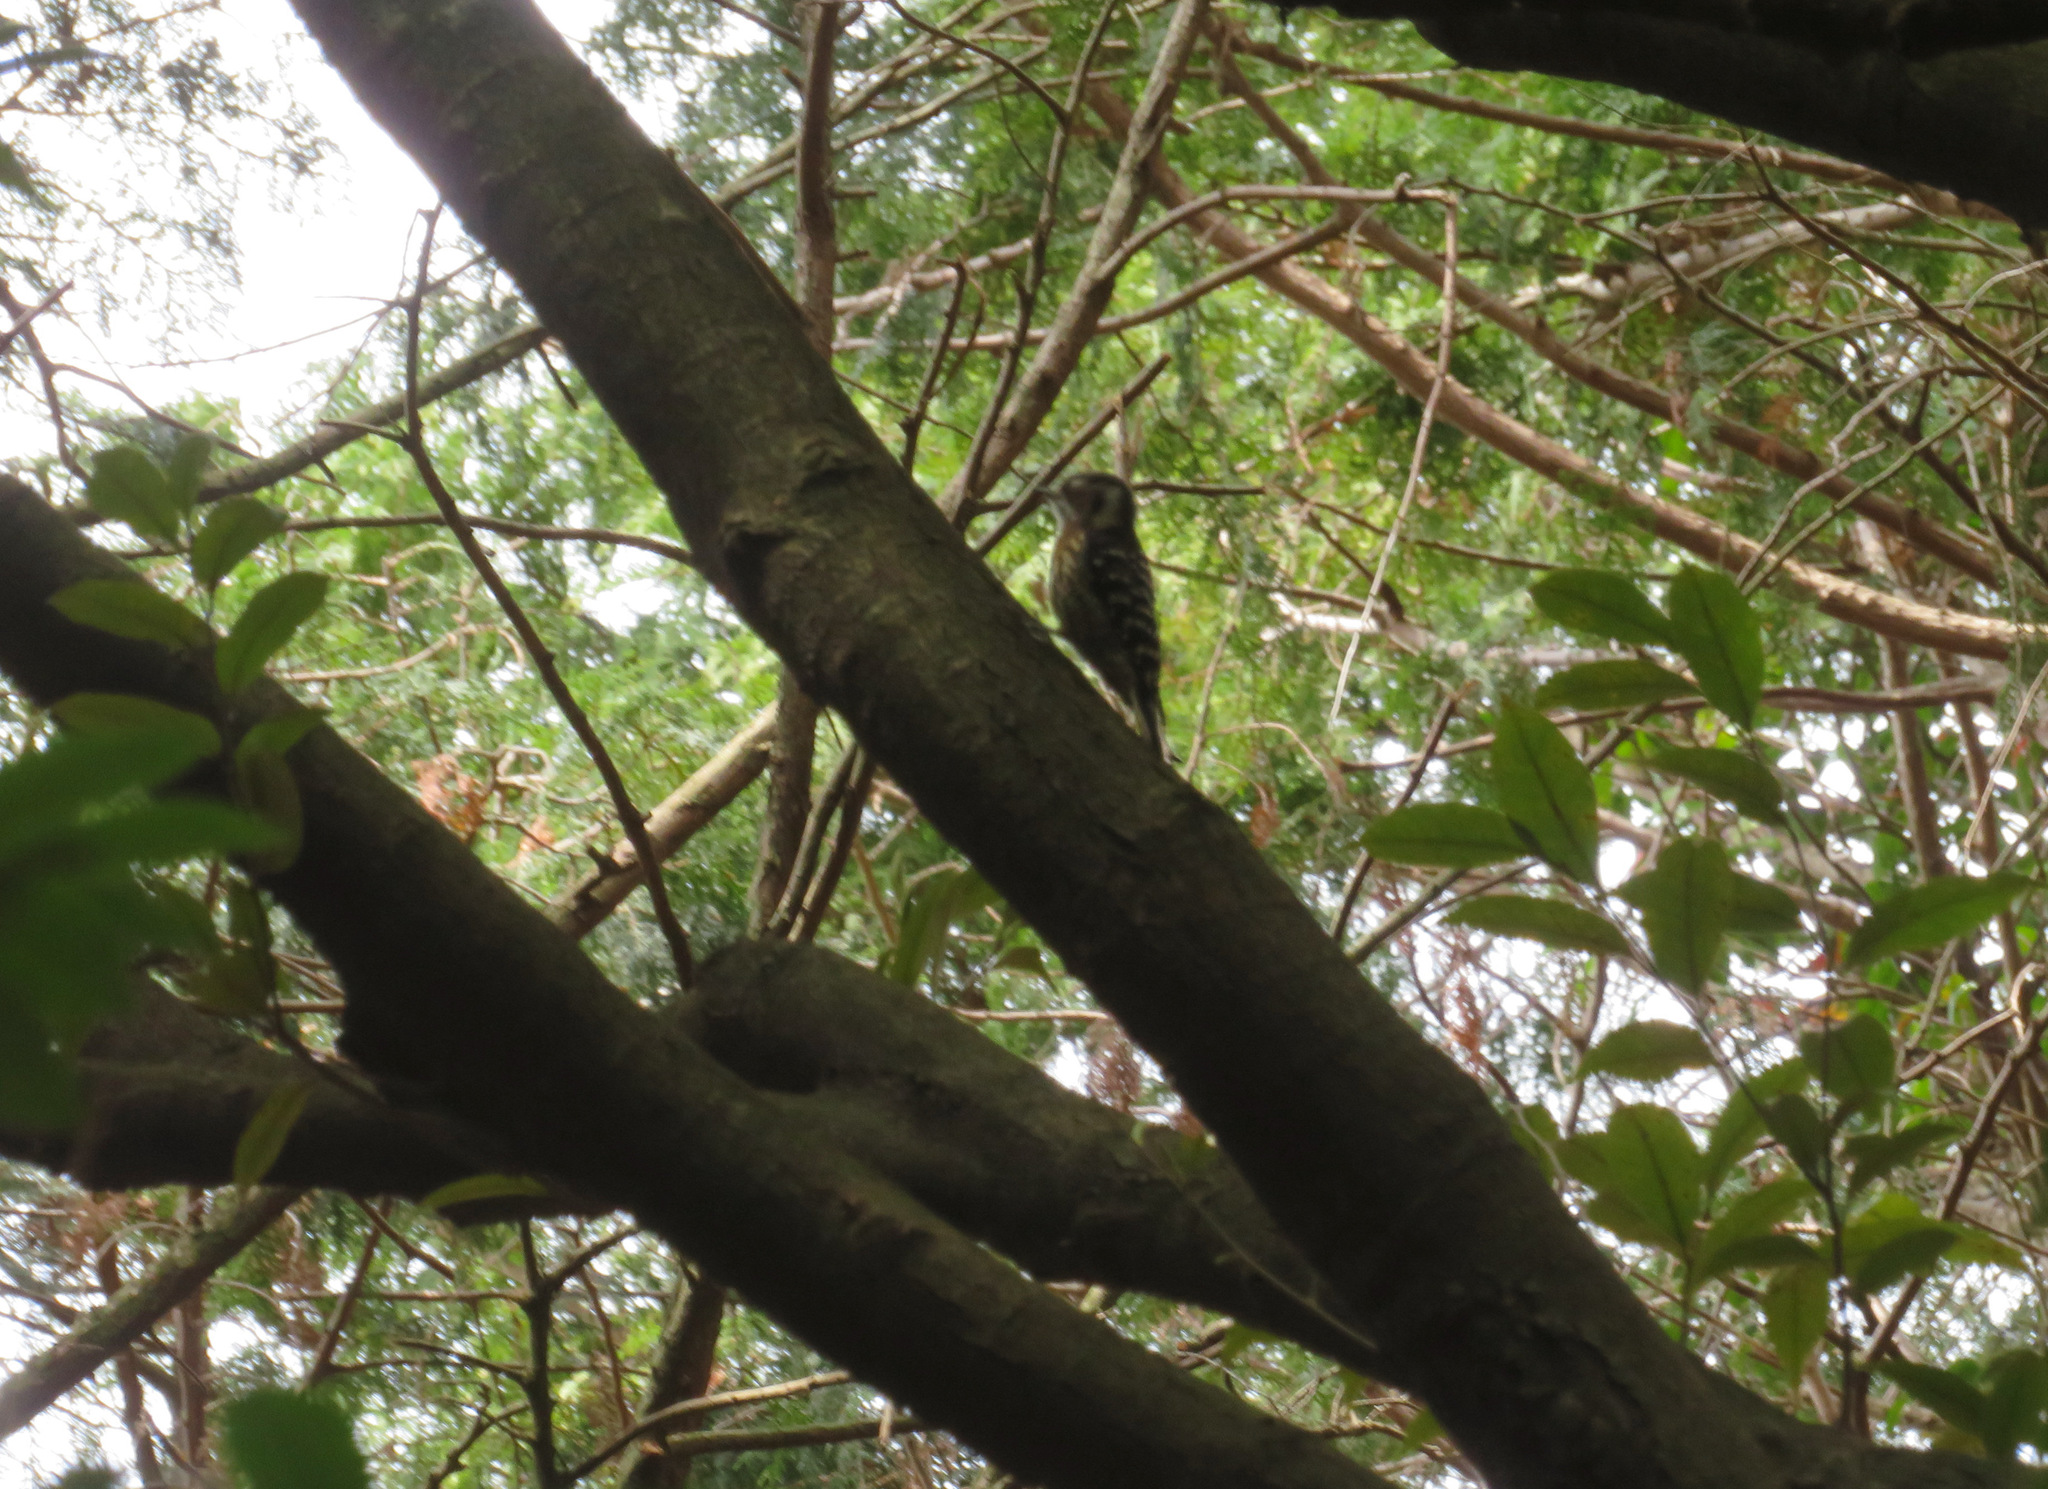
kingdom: Animalia
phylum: Chordata
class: Aves
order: Piciformes
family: Picidae
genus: Yungipicus
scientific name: Yungipicus kizuki
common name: Japanese pygmy woodpecker
